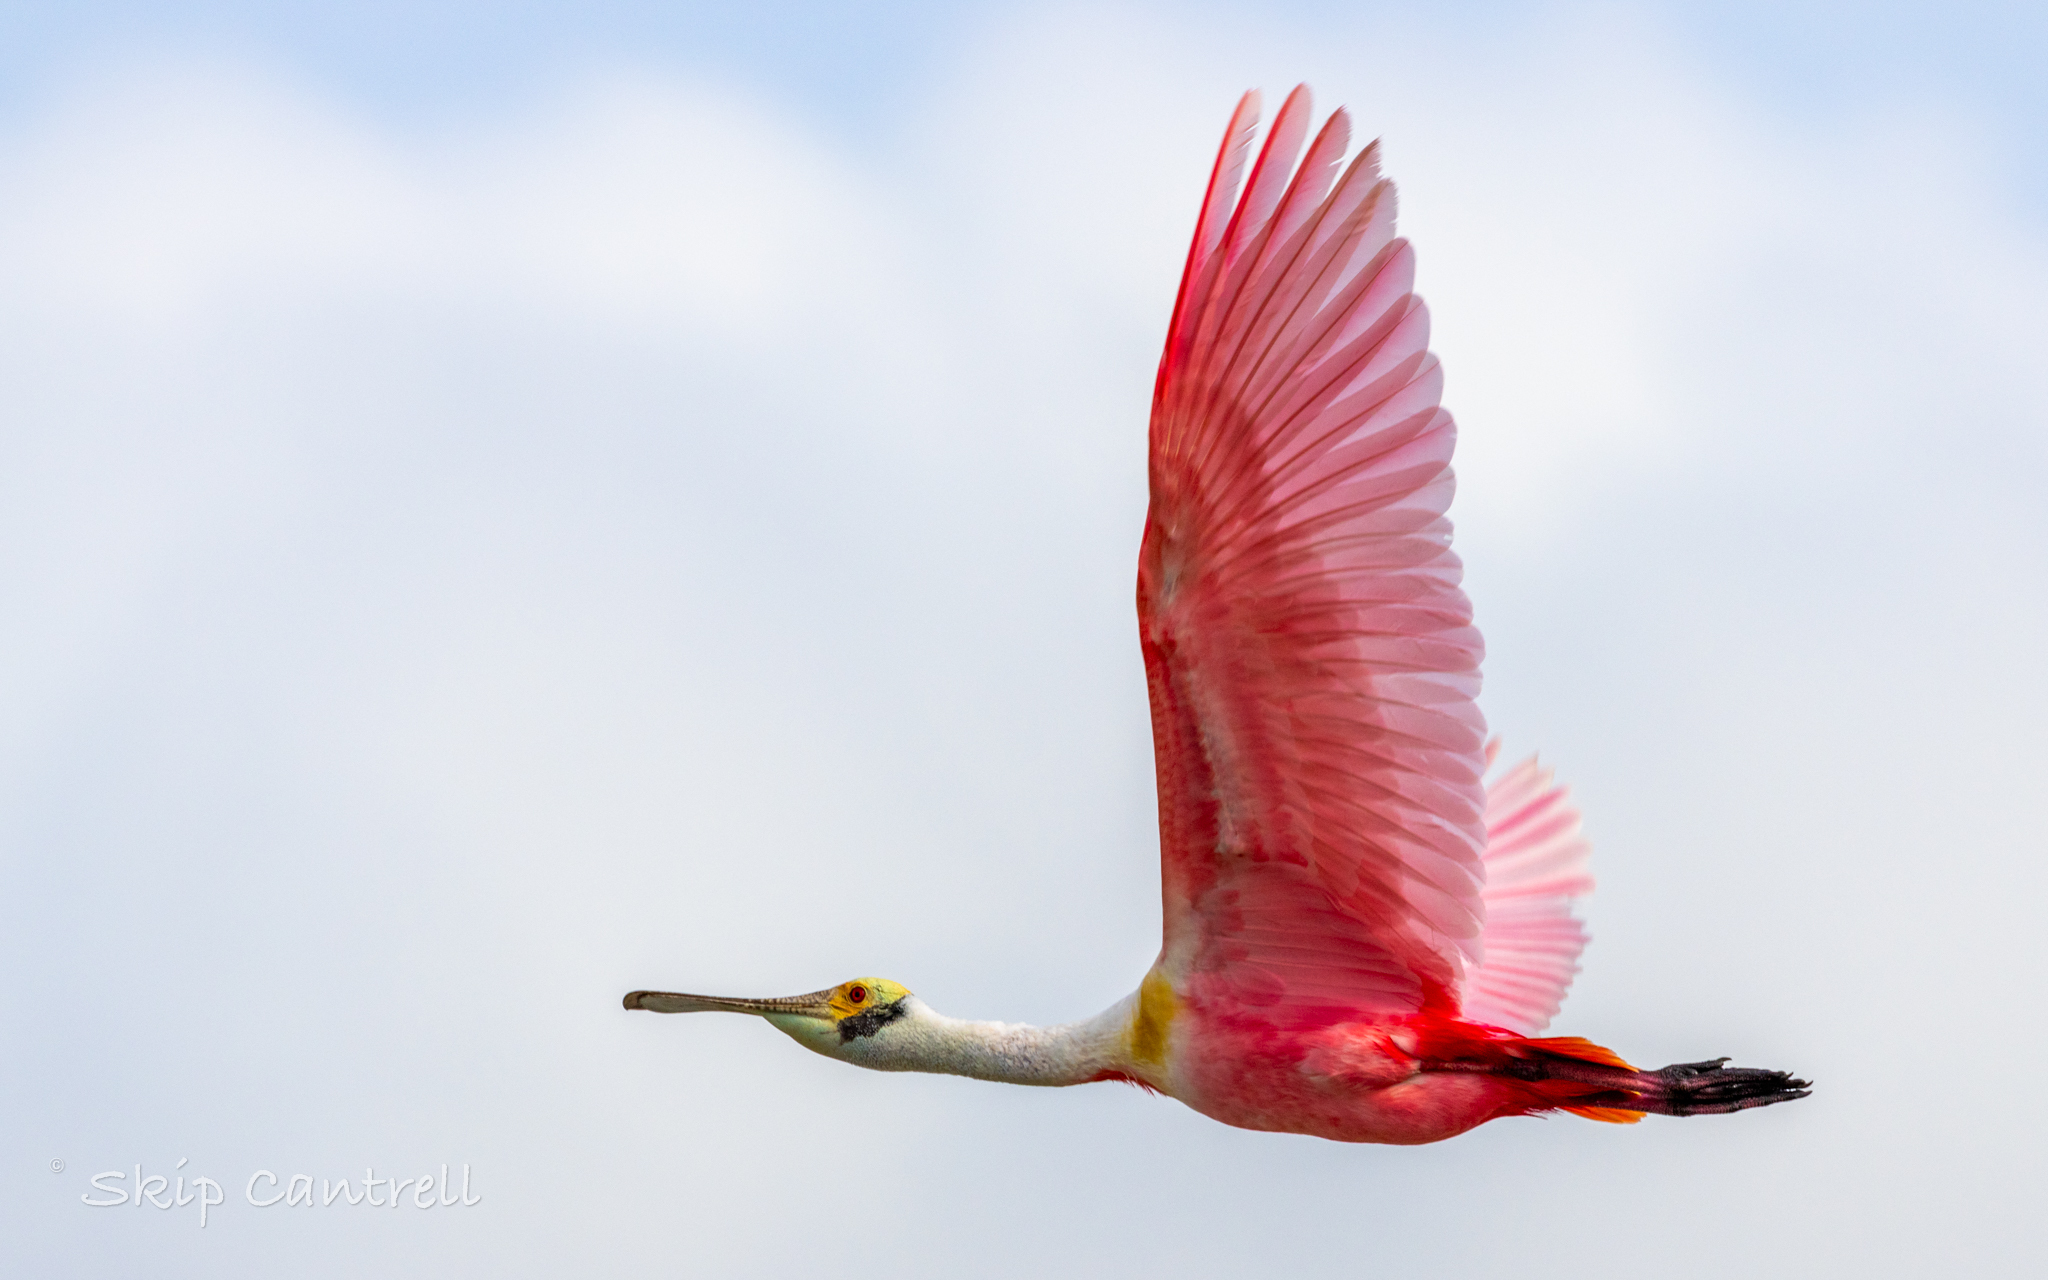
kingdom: Animalia
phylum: Chordata
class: Aves
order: Pelecaniformes
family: Threskiornithidae
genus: Platalea
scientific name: Platalea ajaja
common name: Roseate spoonbill
